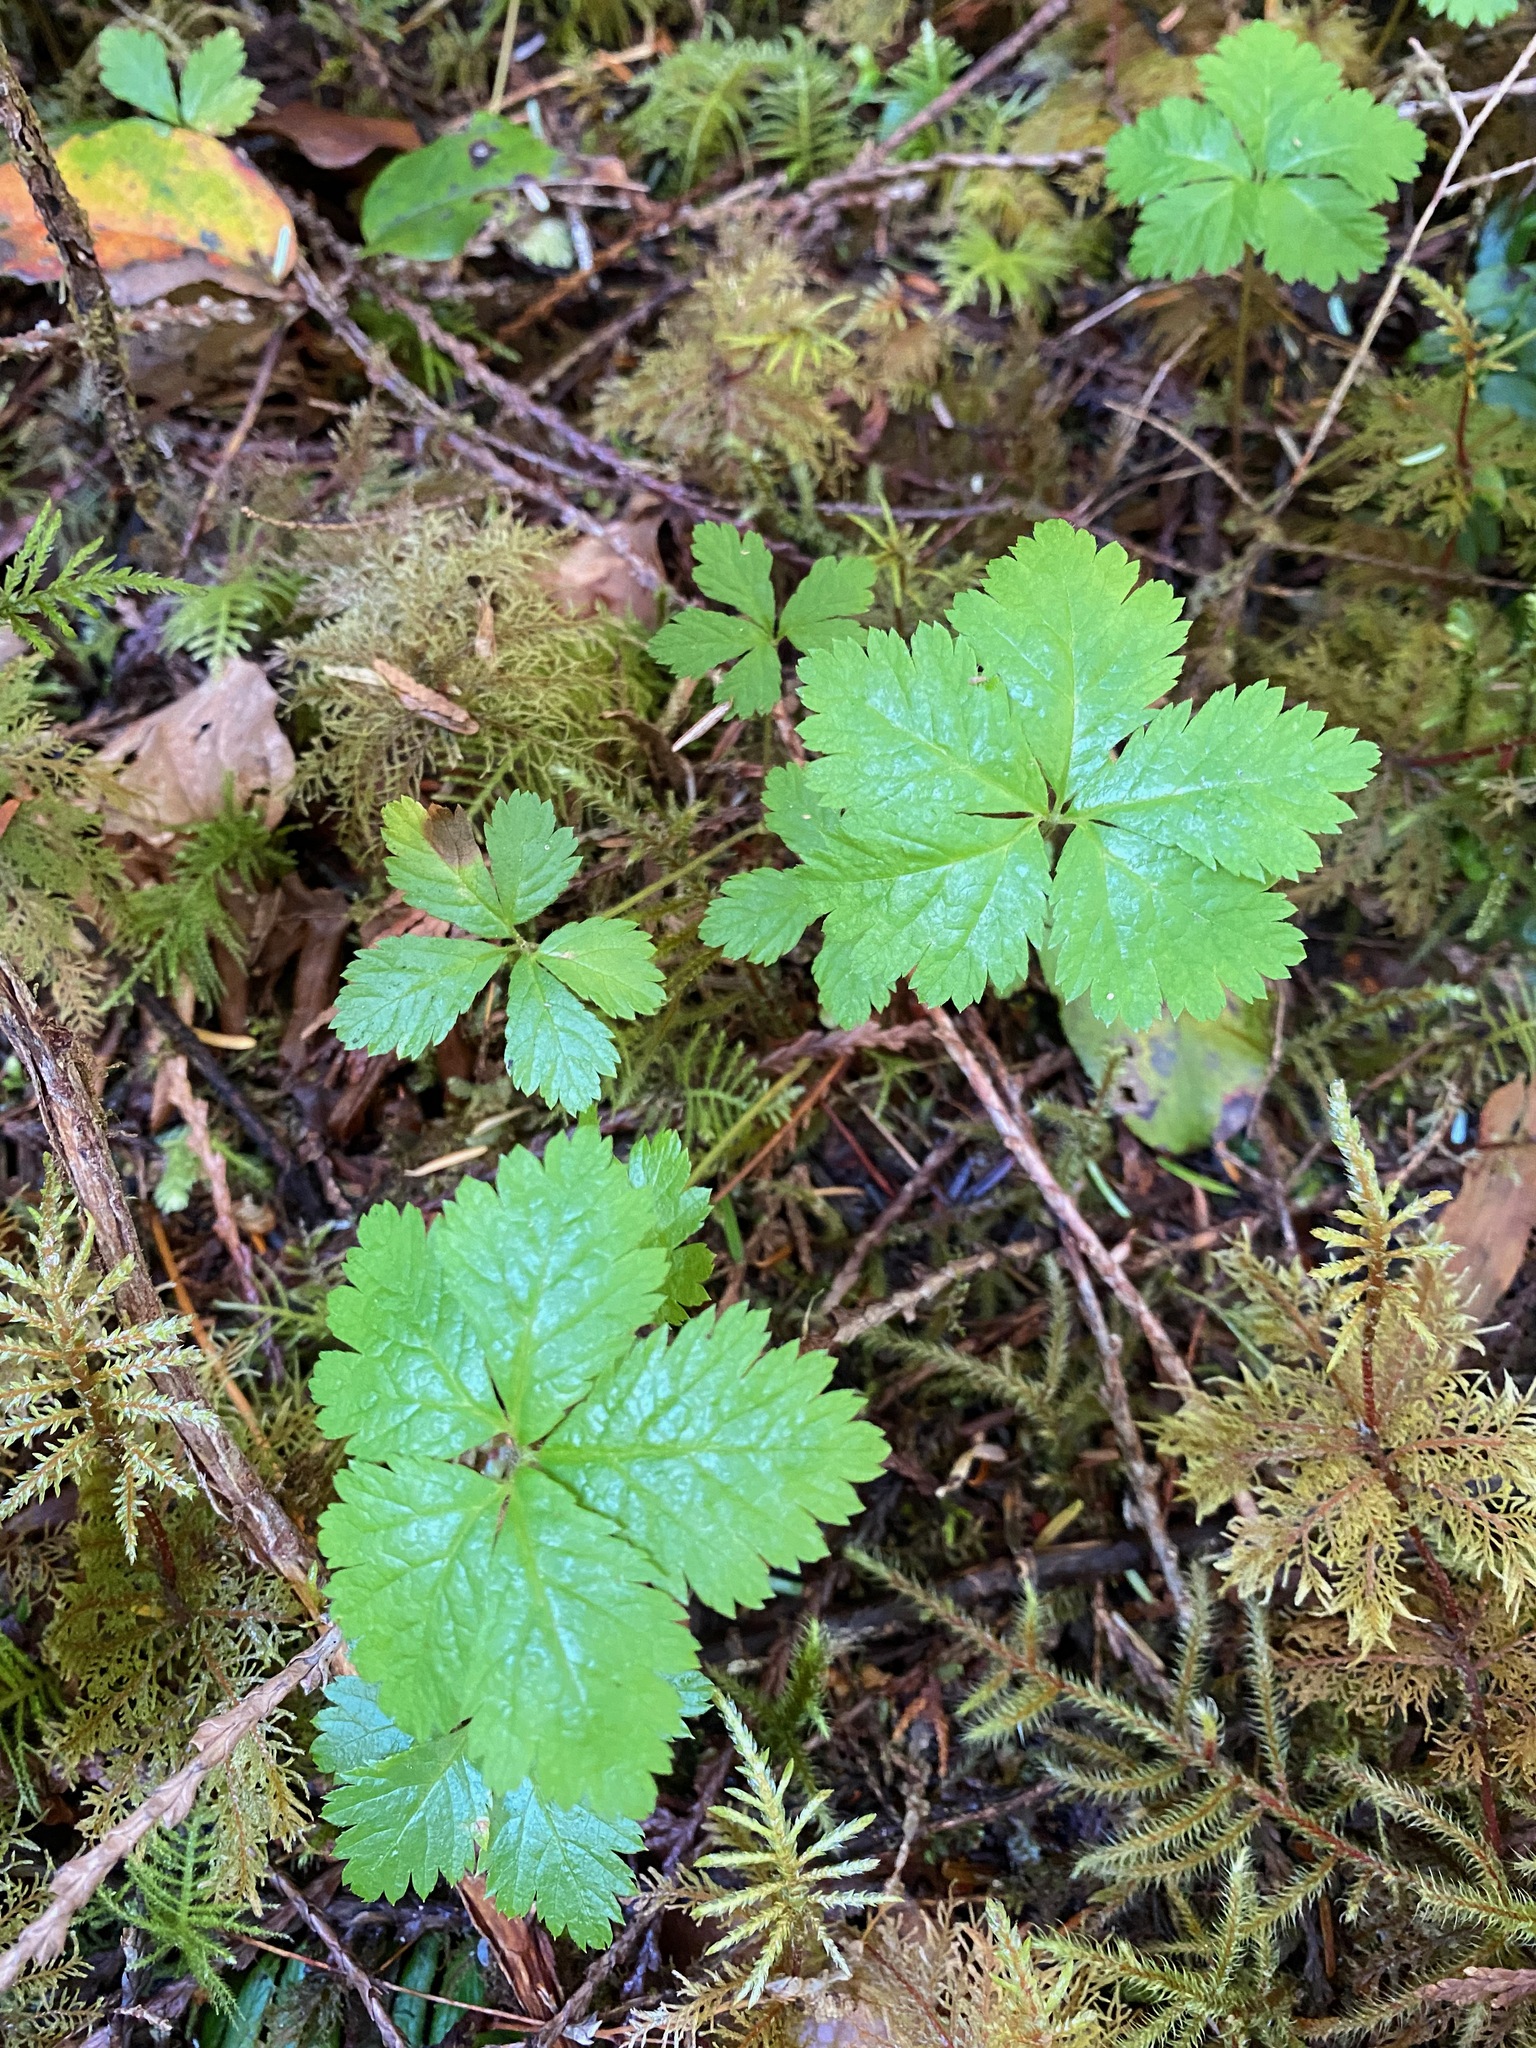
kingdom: Plantae
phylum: Tracheophyta
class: Magnoliopsida
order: Rosales
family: Rosaceae
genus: Rubus
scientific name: Rubus pedatus
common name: Creeping raspberry
